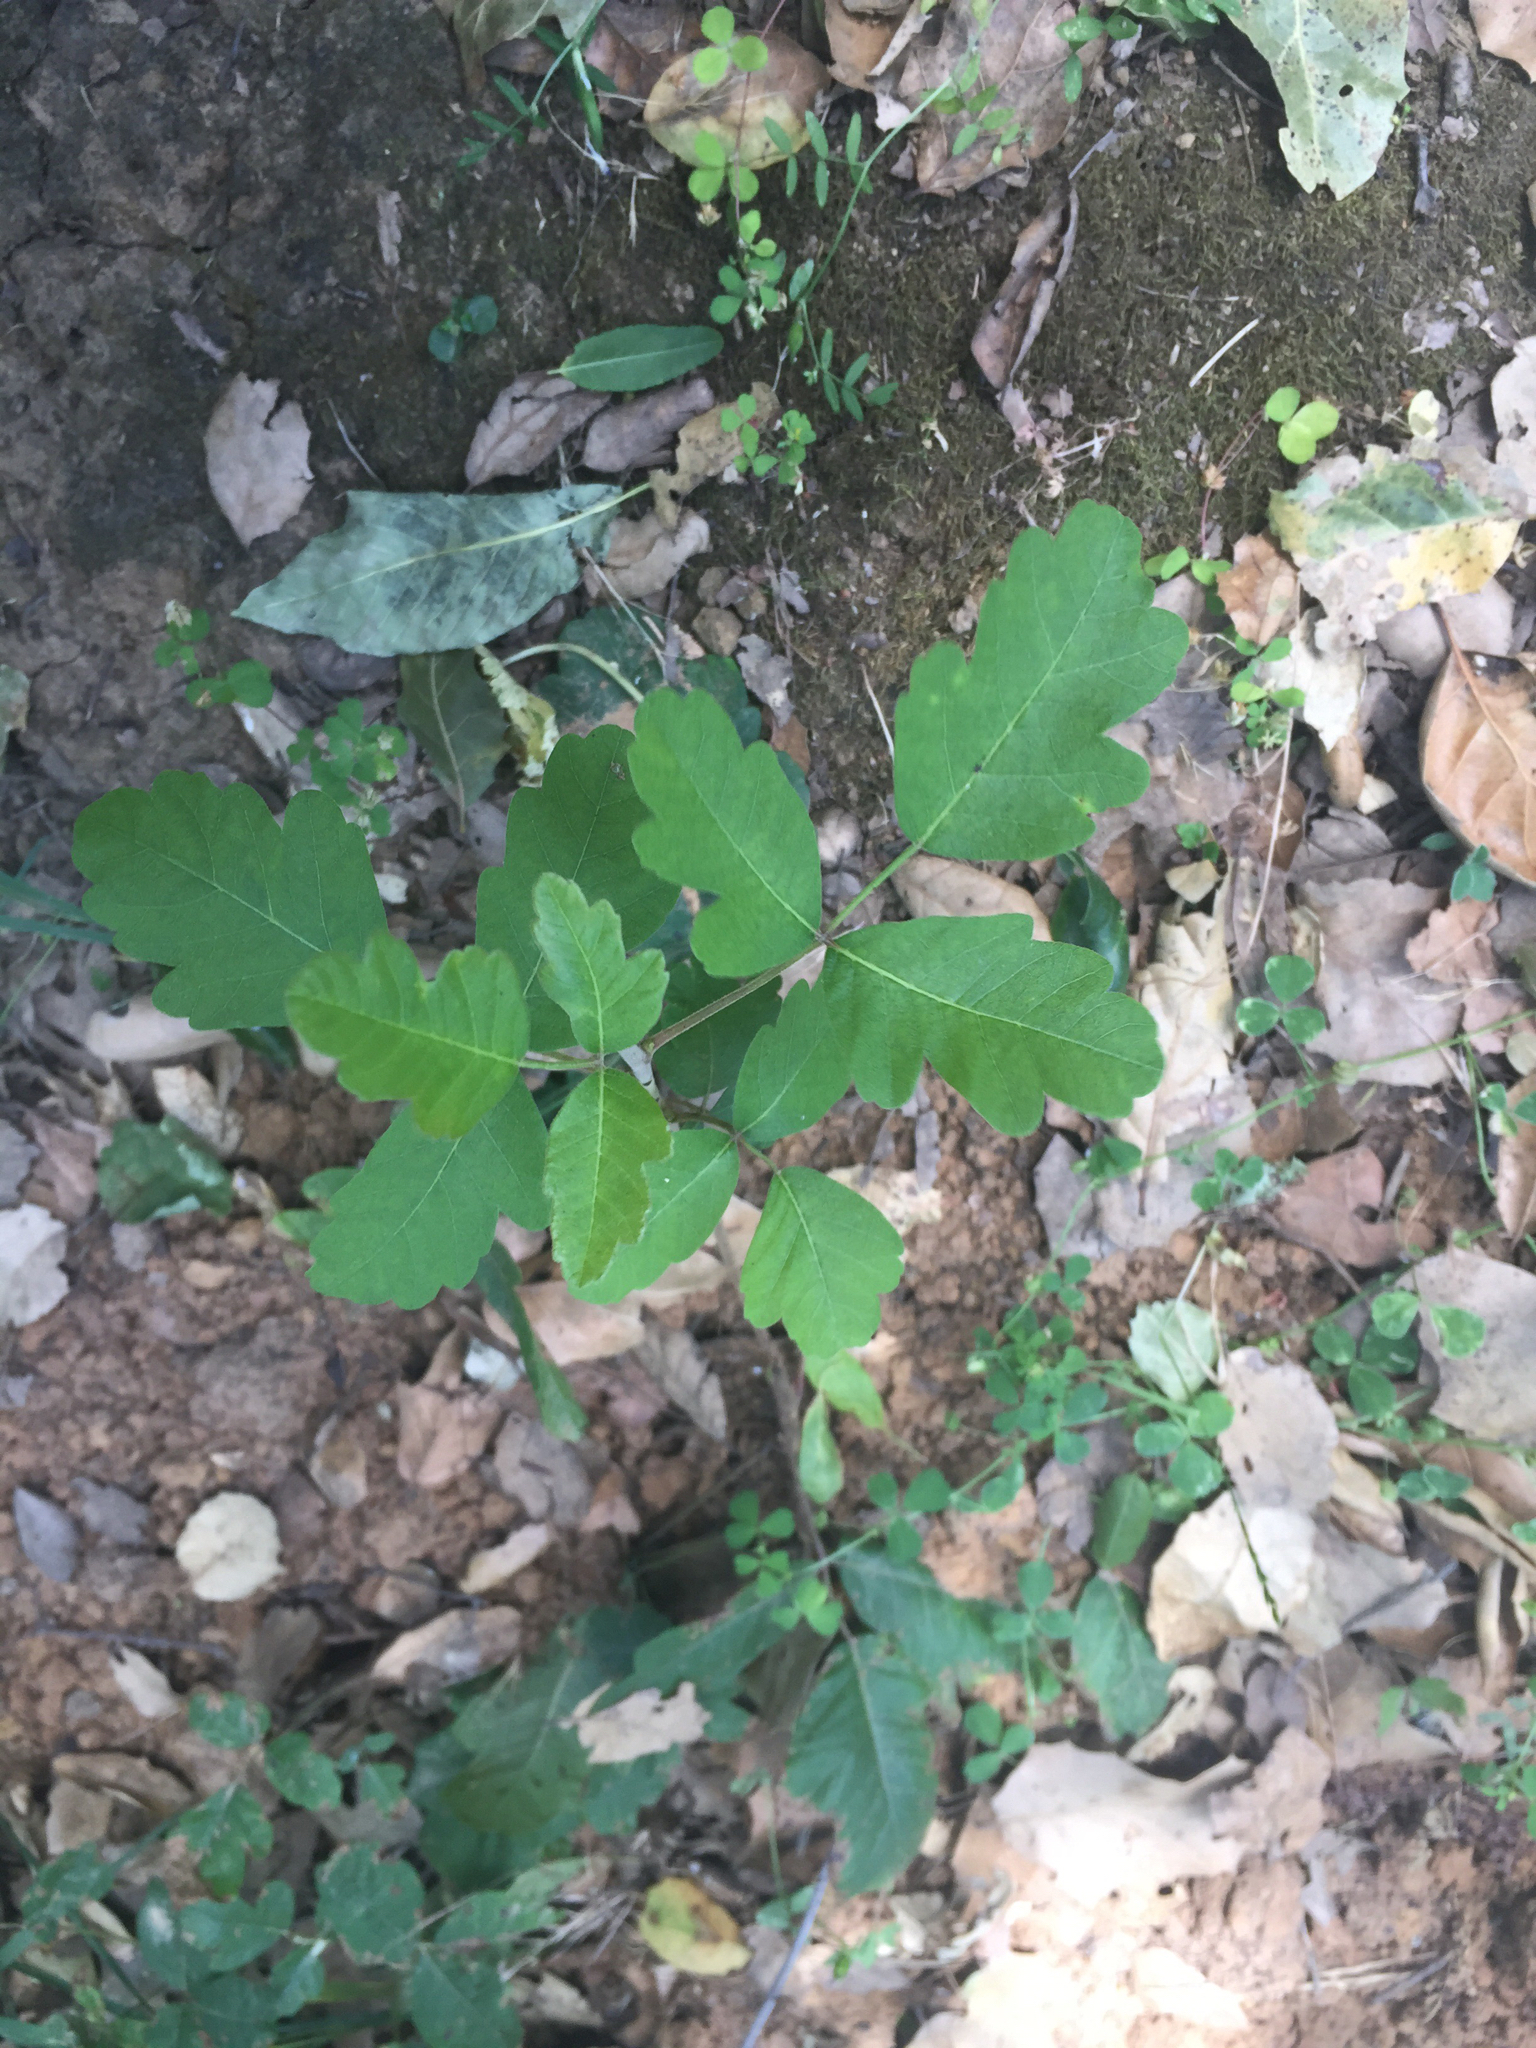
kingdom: Plantae
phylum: Tracheophyta
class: Magnoliopsida
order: Sapindales
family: Anacardiaceae
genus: Toxicodendron
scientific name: Toxicodendron diversilobum
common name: Pacific poison-oak
